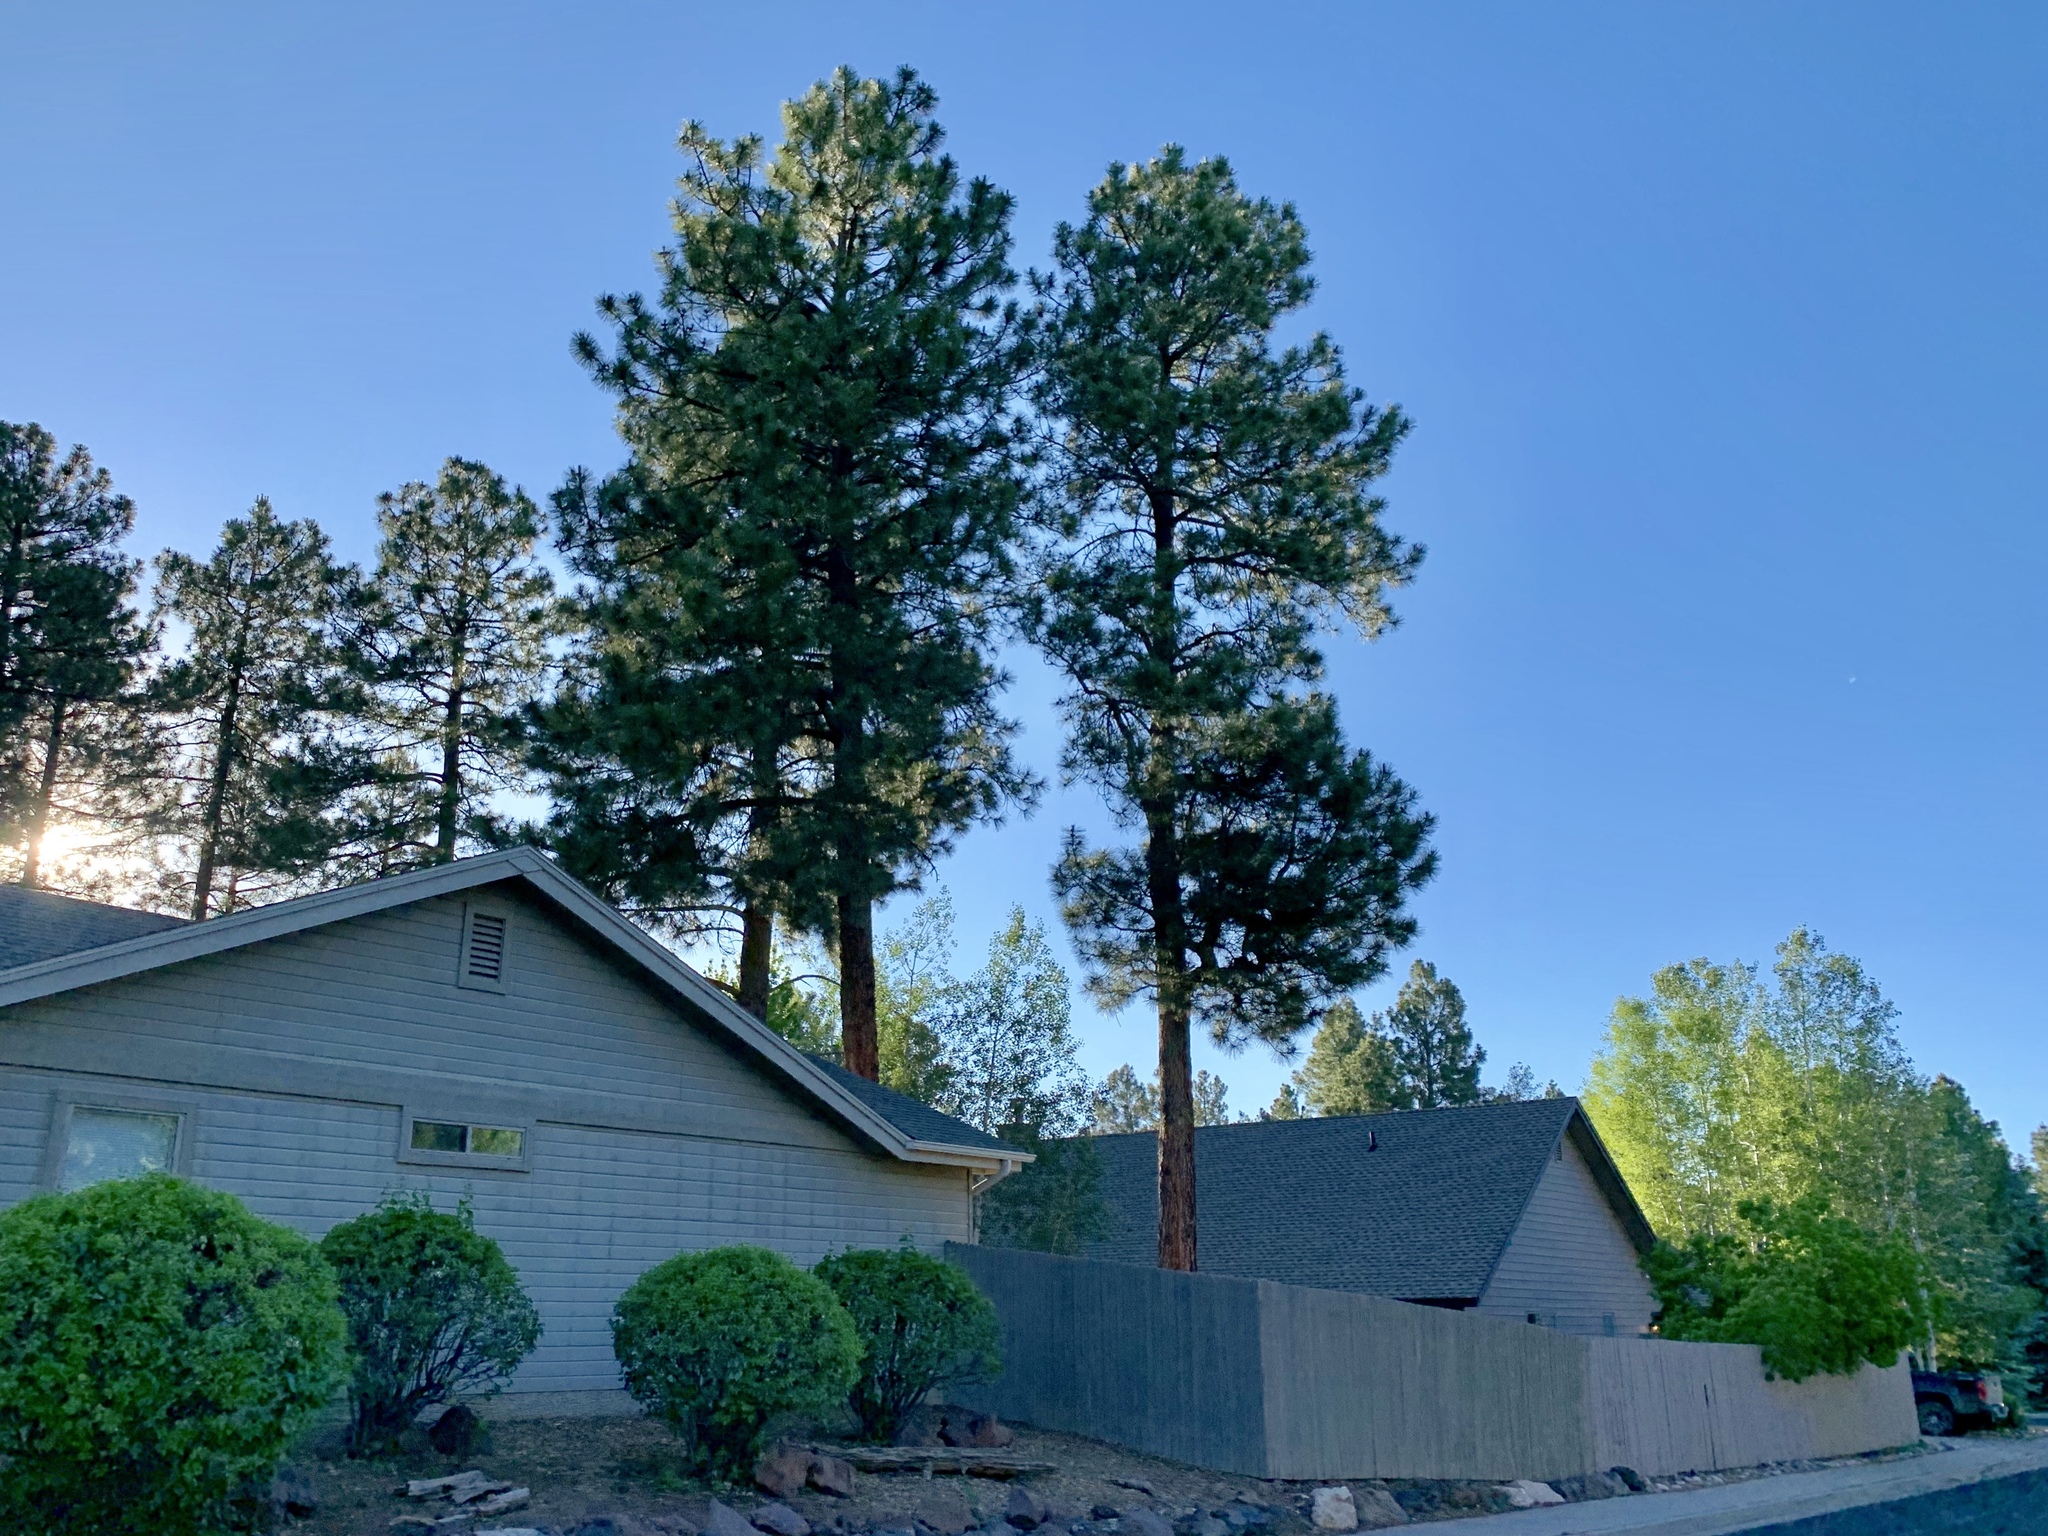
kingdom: Plantae
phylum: Tracheophyta
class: Pinopsida
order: Pinales
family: Pinaceae
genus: Pinus
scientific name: Pinus ponderosa
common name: Western yellow-pine
